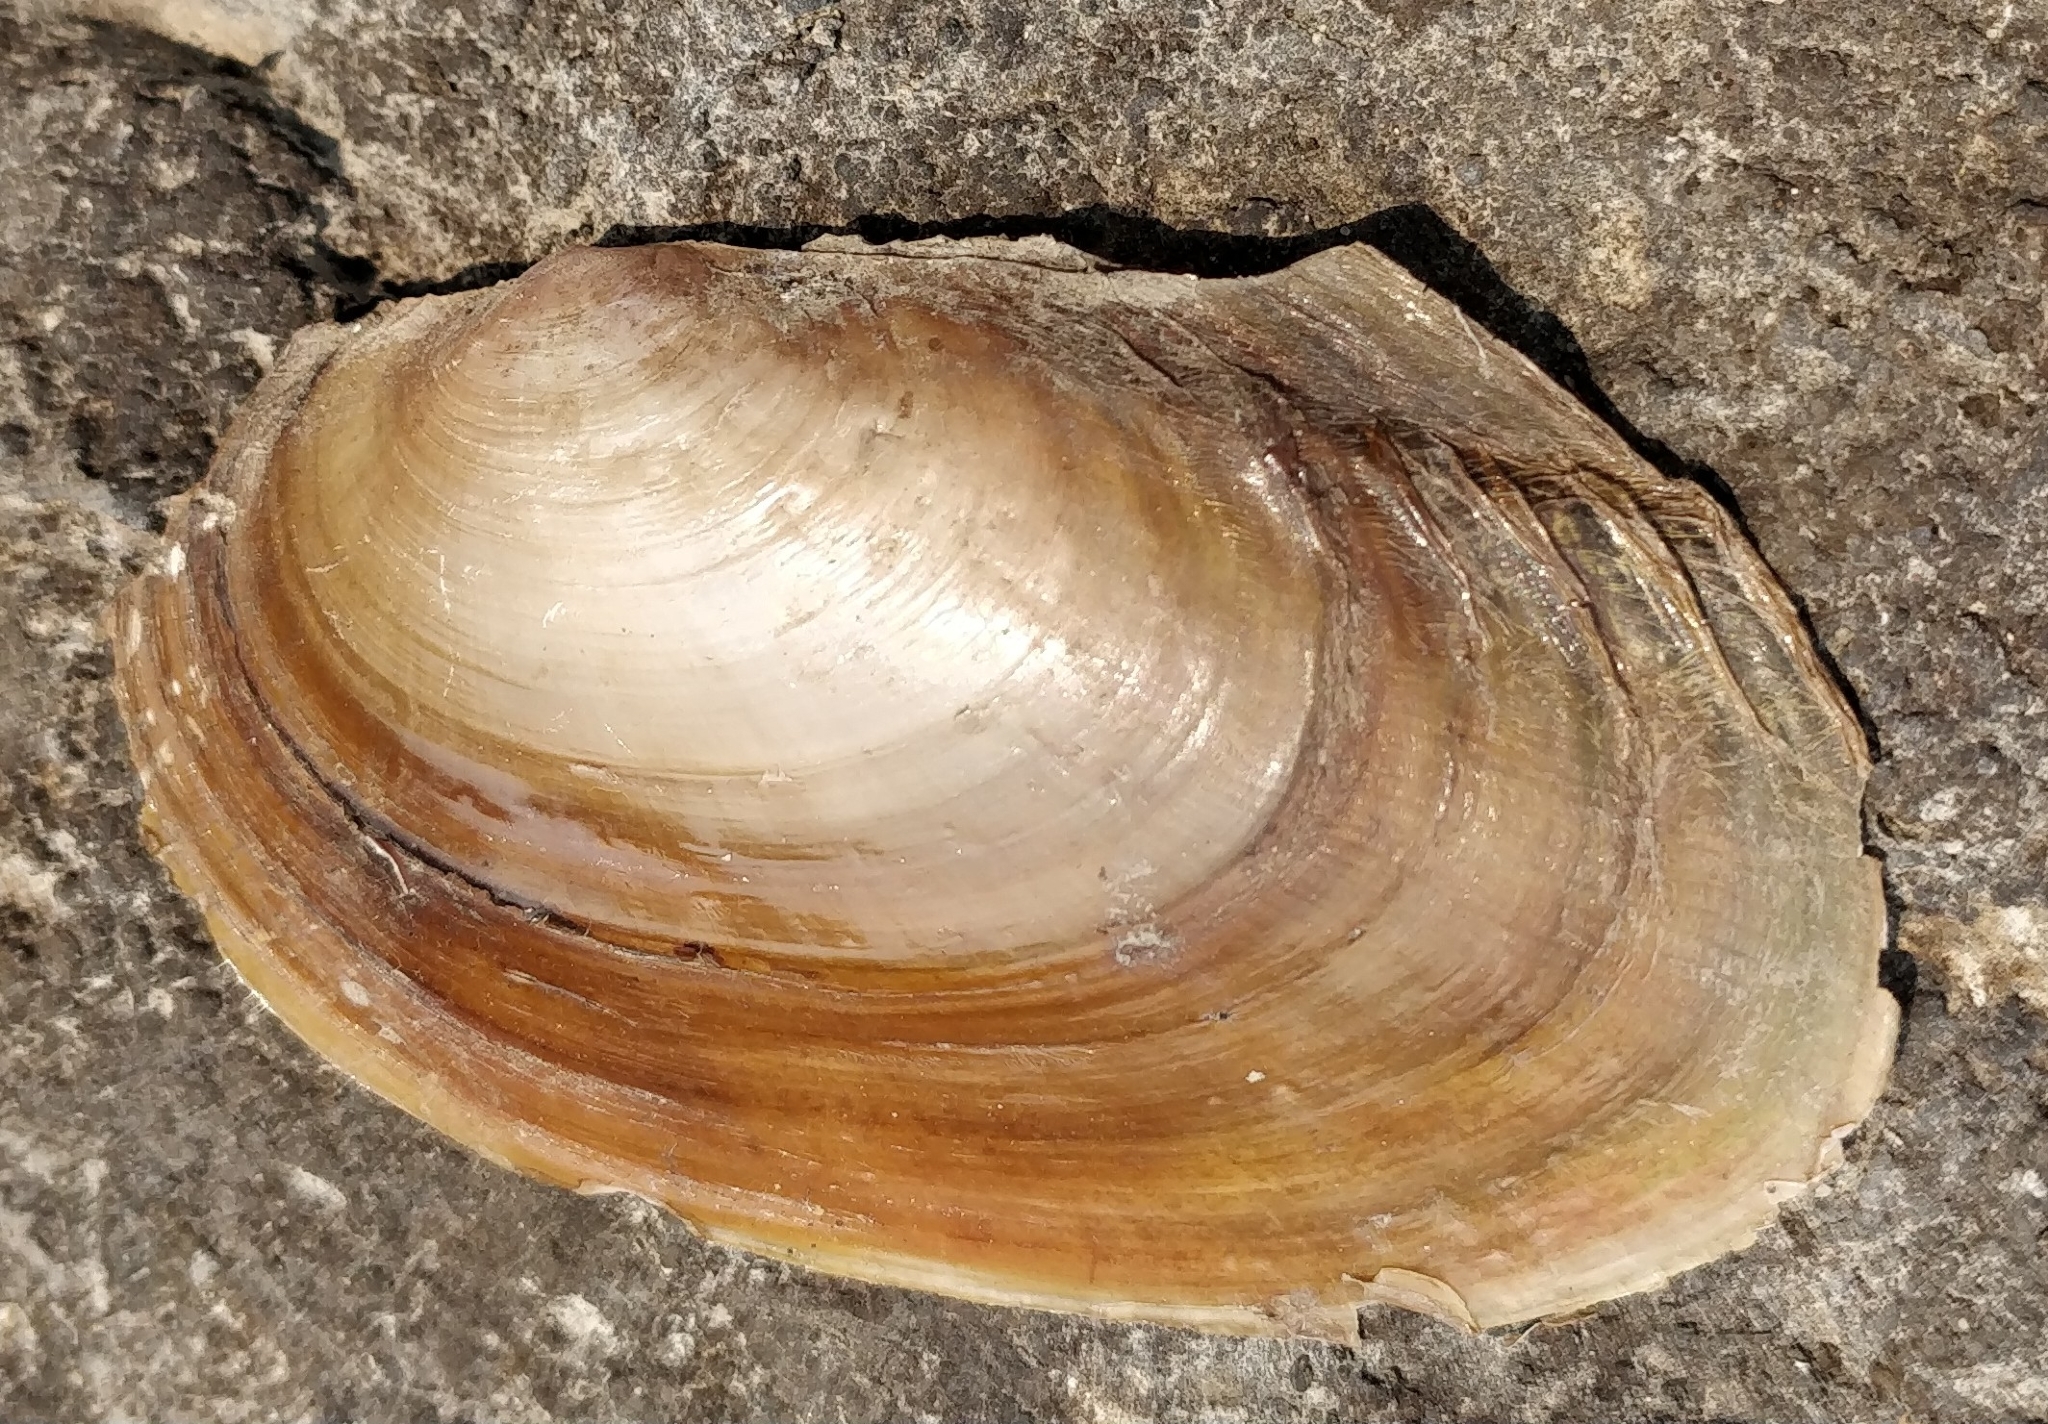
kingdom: Animalia
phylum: Mollusca
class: Bivalvia
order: Unionida
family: Unionidae
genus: Potamilus
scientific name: Potamilus ohiensis
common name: Pink papershell
